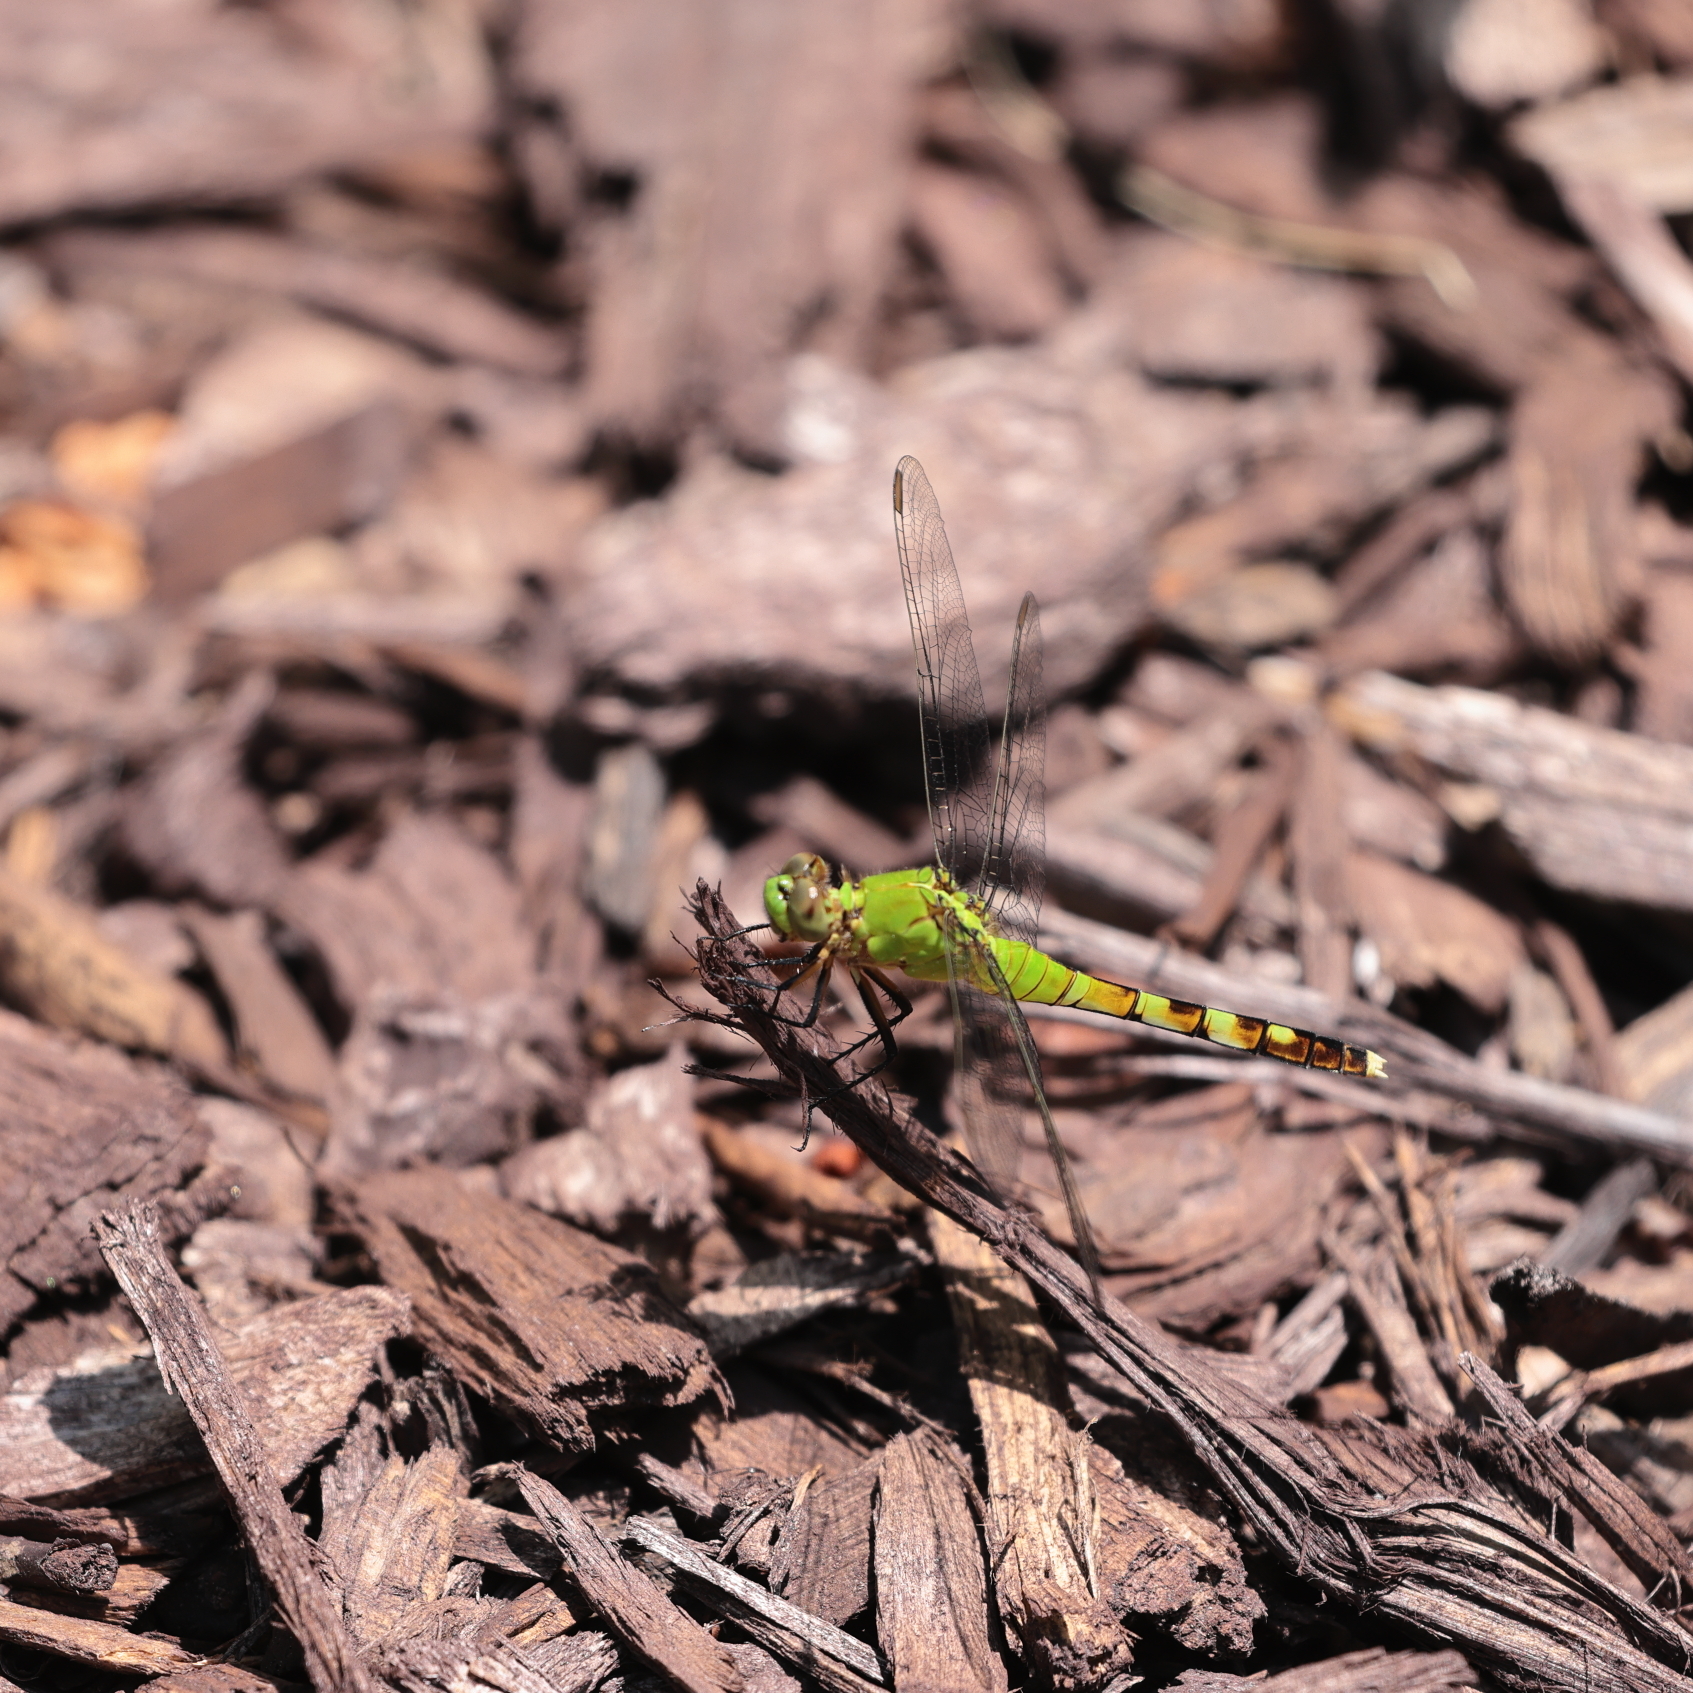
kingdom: Animalia
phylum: Arthropoda
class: Insecta
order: Odonata
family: Libellulidae
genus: Erythemis
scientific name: Erythemis simplicicollis
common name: Eastern pondhawk
